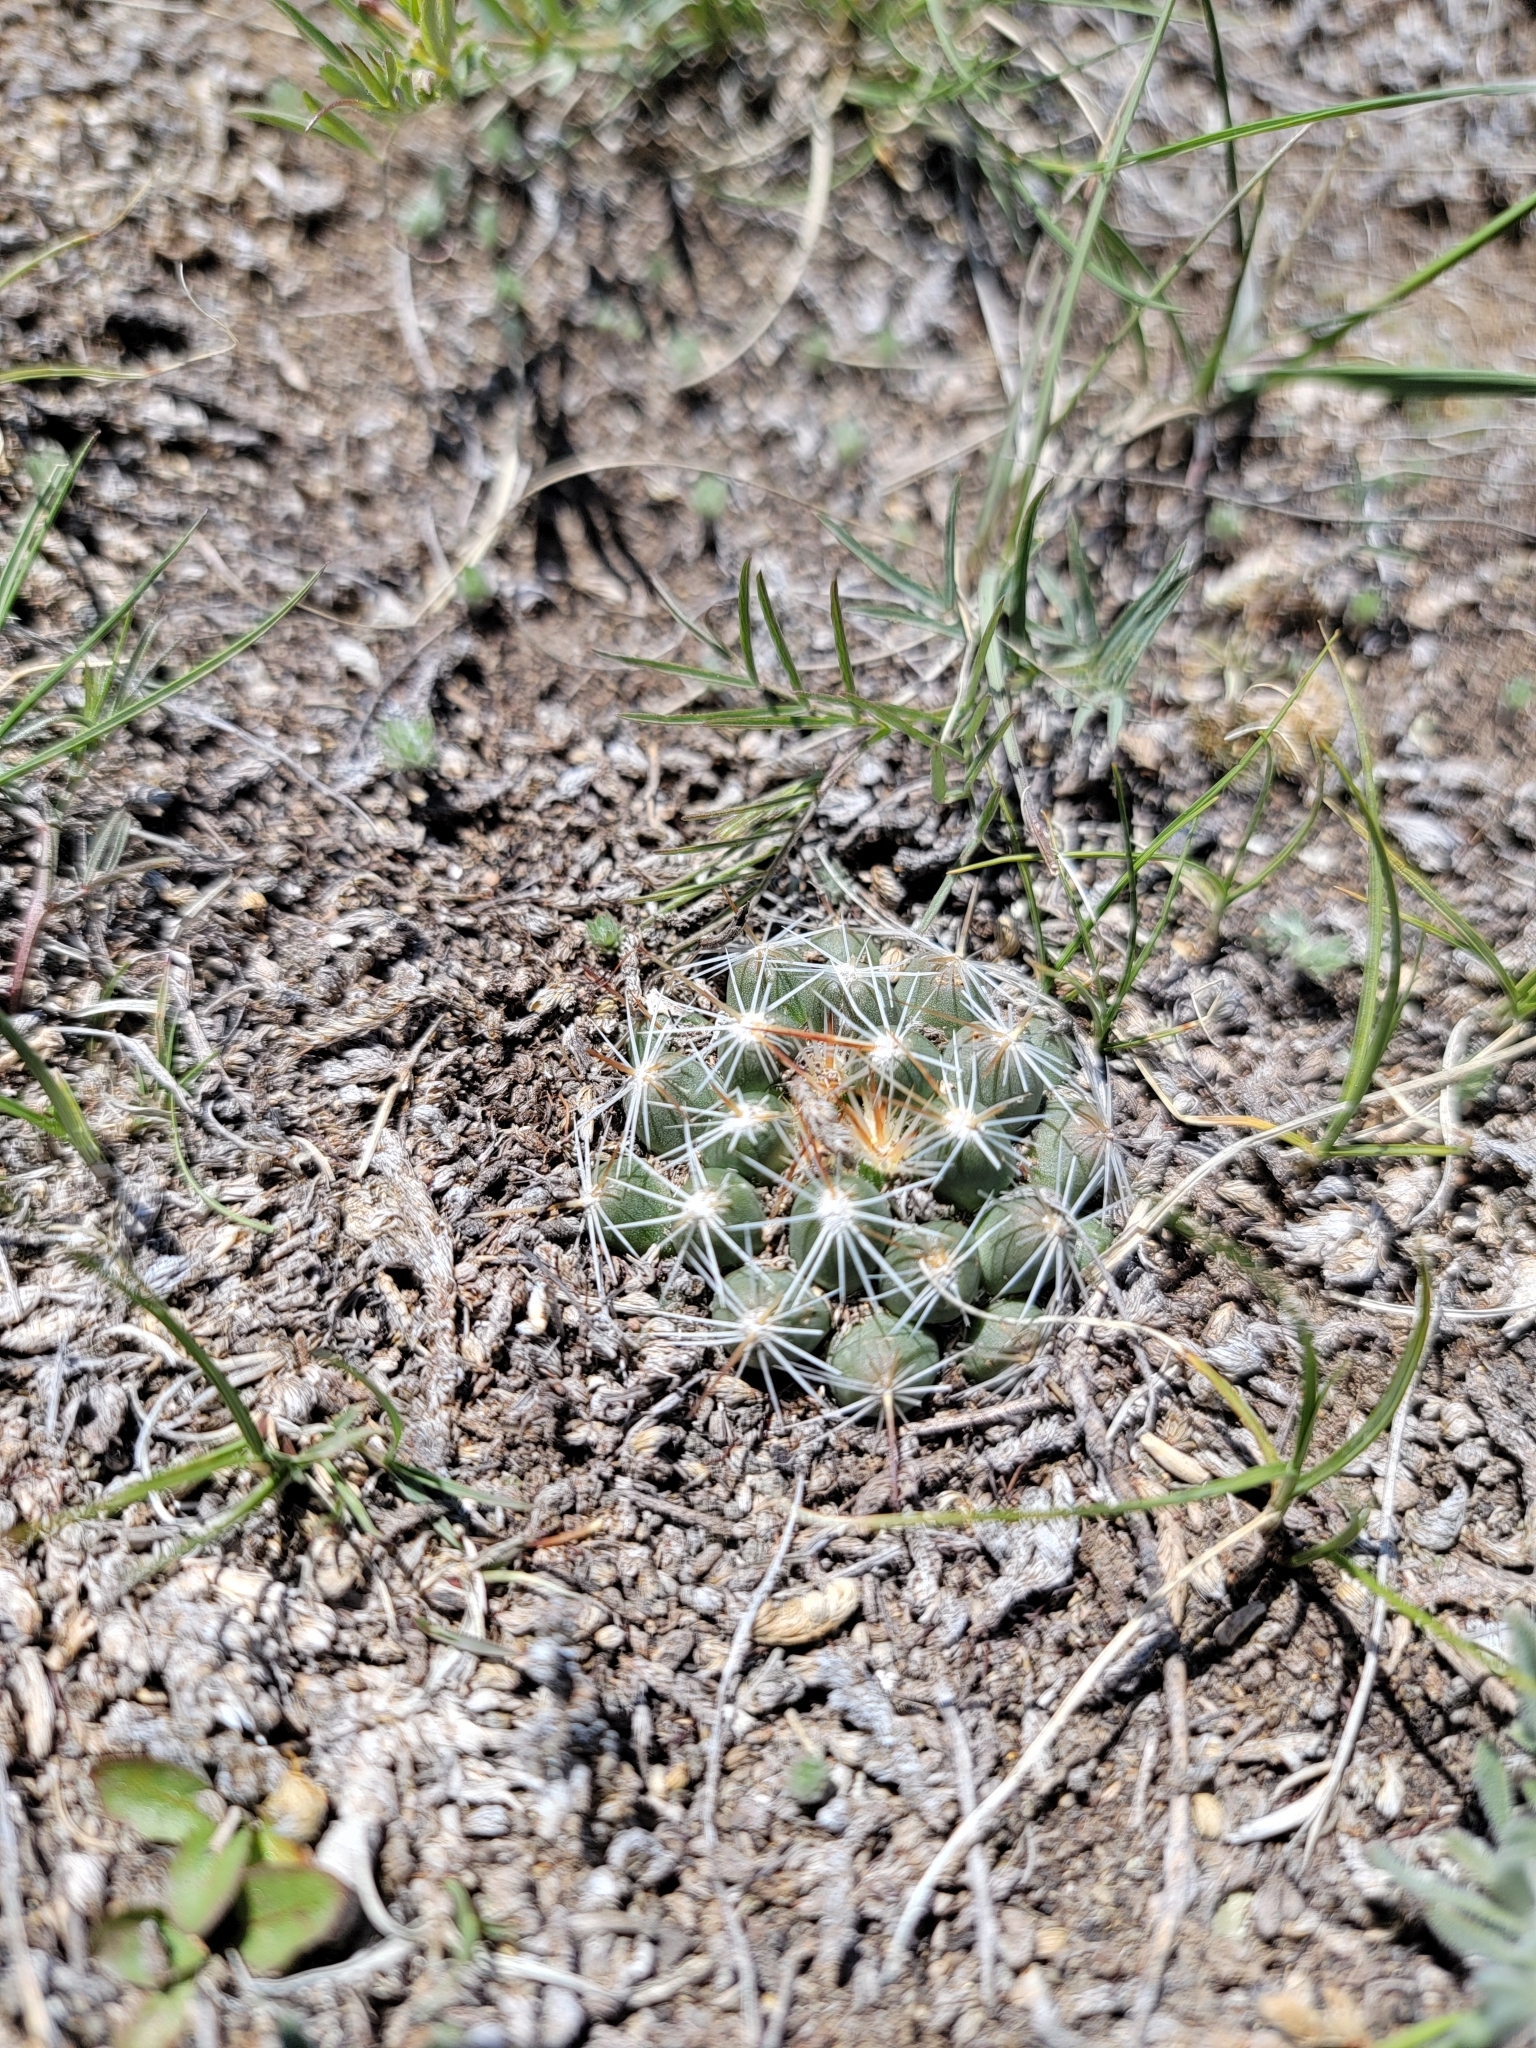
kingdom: Plantae
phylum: Tracheophyta
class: Magnoliopsida
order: Caryophyllales
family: Cactaceae
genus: Pelecyphora
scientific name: Pelecyphora vivipara
